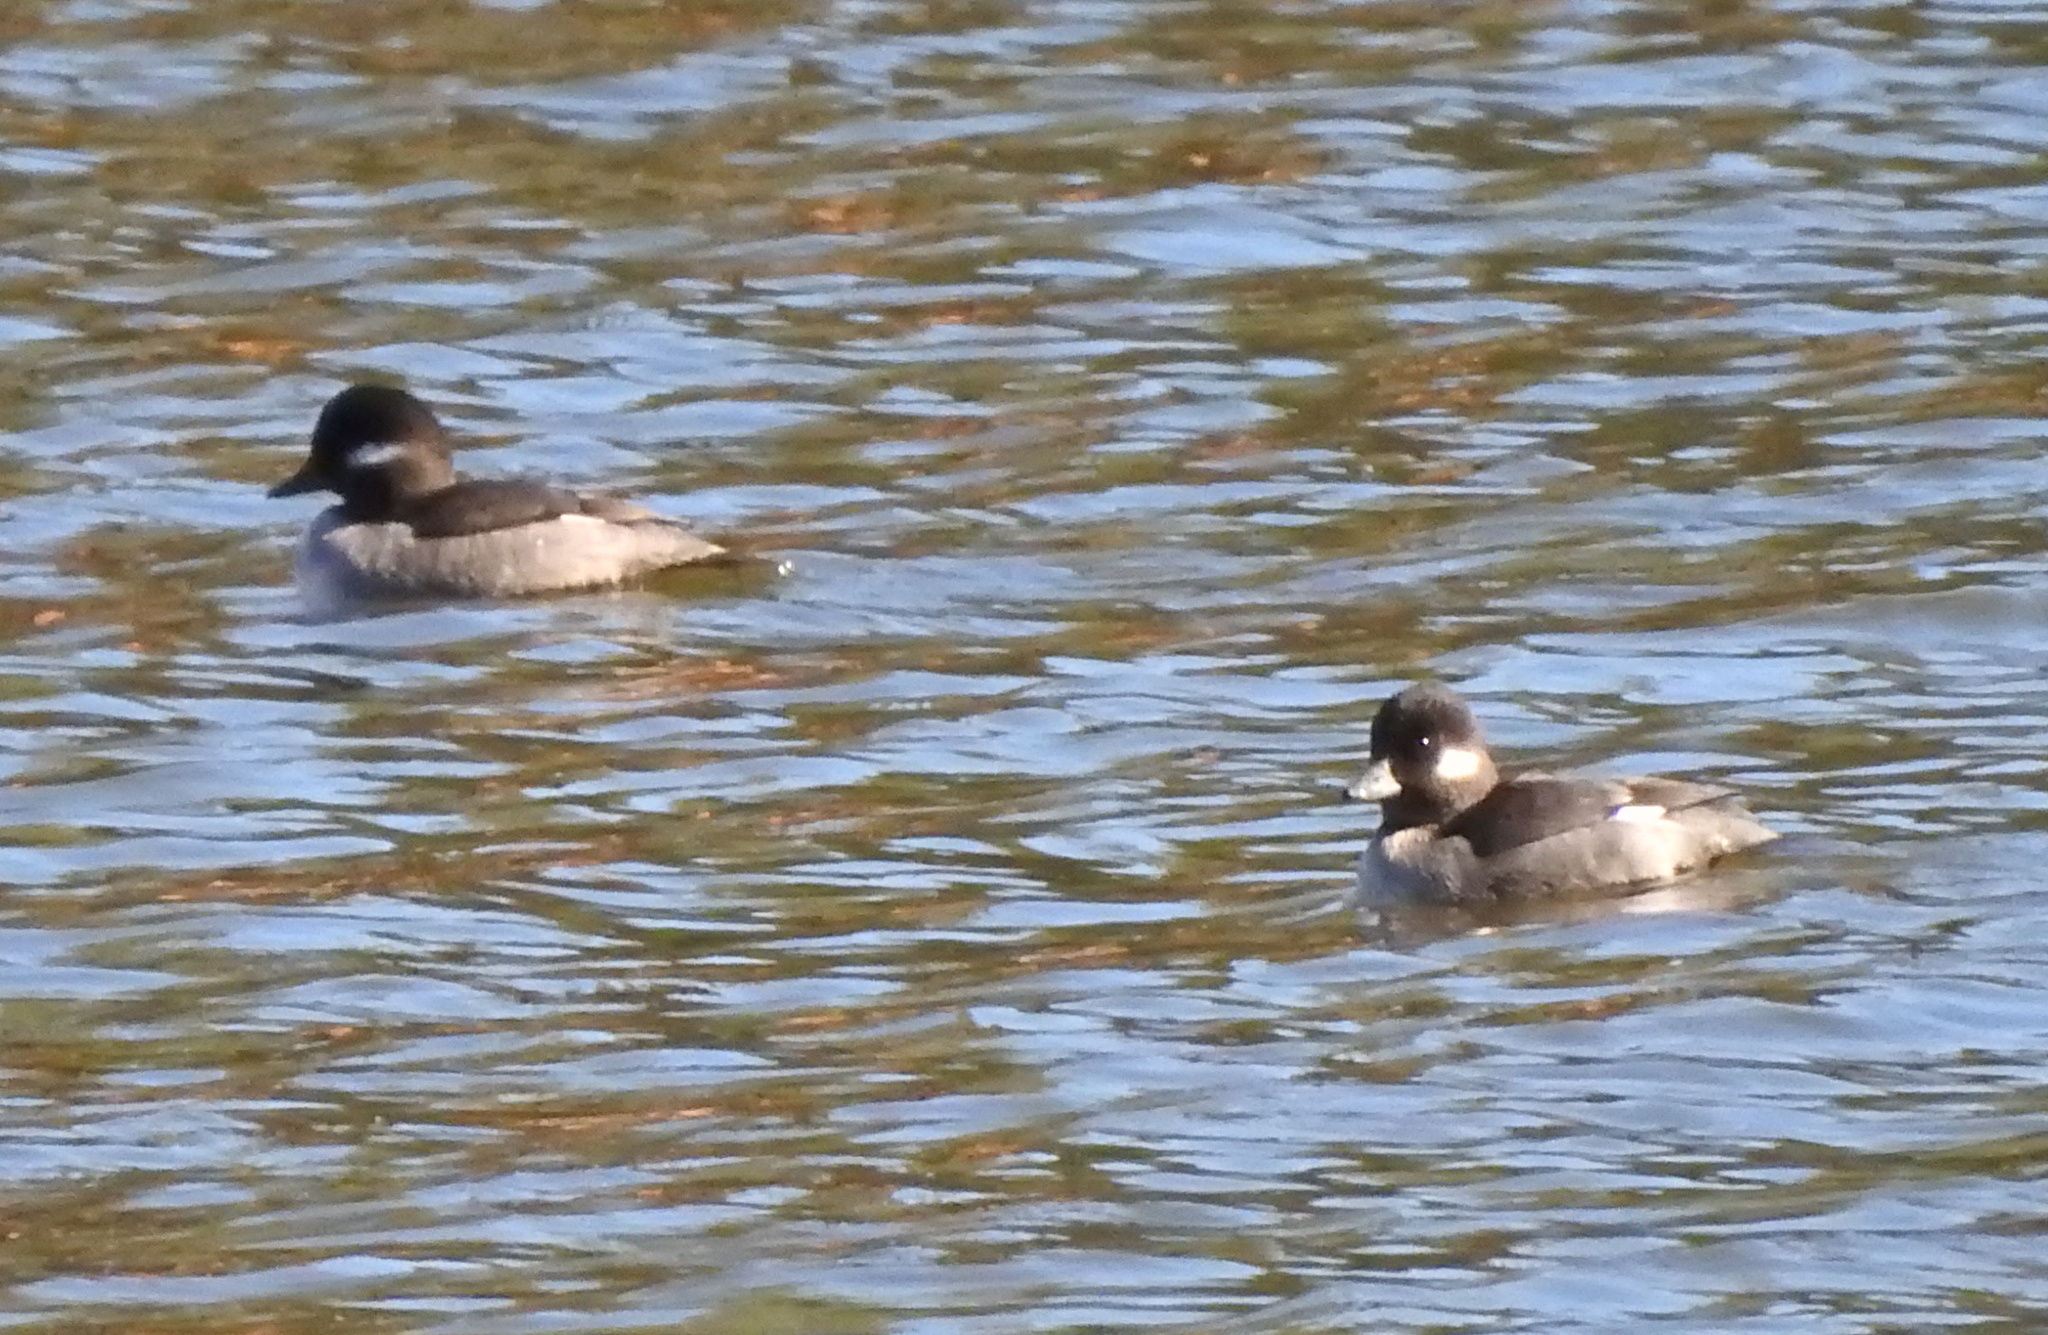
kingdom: Animalia
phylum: Chordata
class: Aves
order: Anseriformes
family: Anatidae
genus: Bucephala
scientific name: Bucephala albeola
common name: Bufflehead
